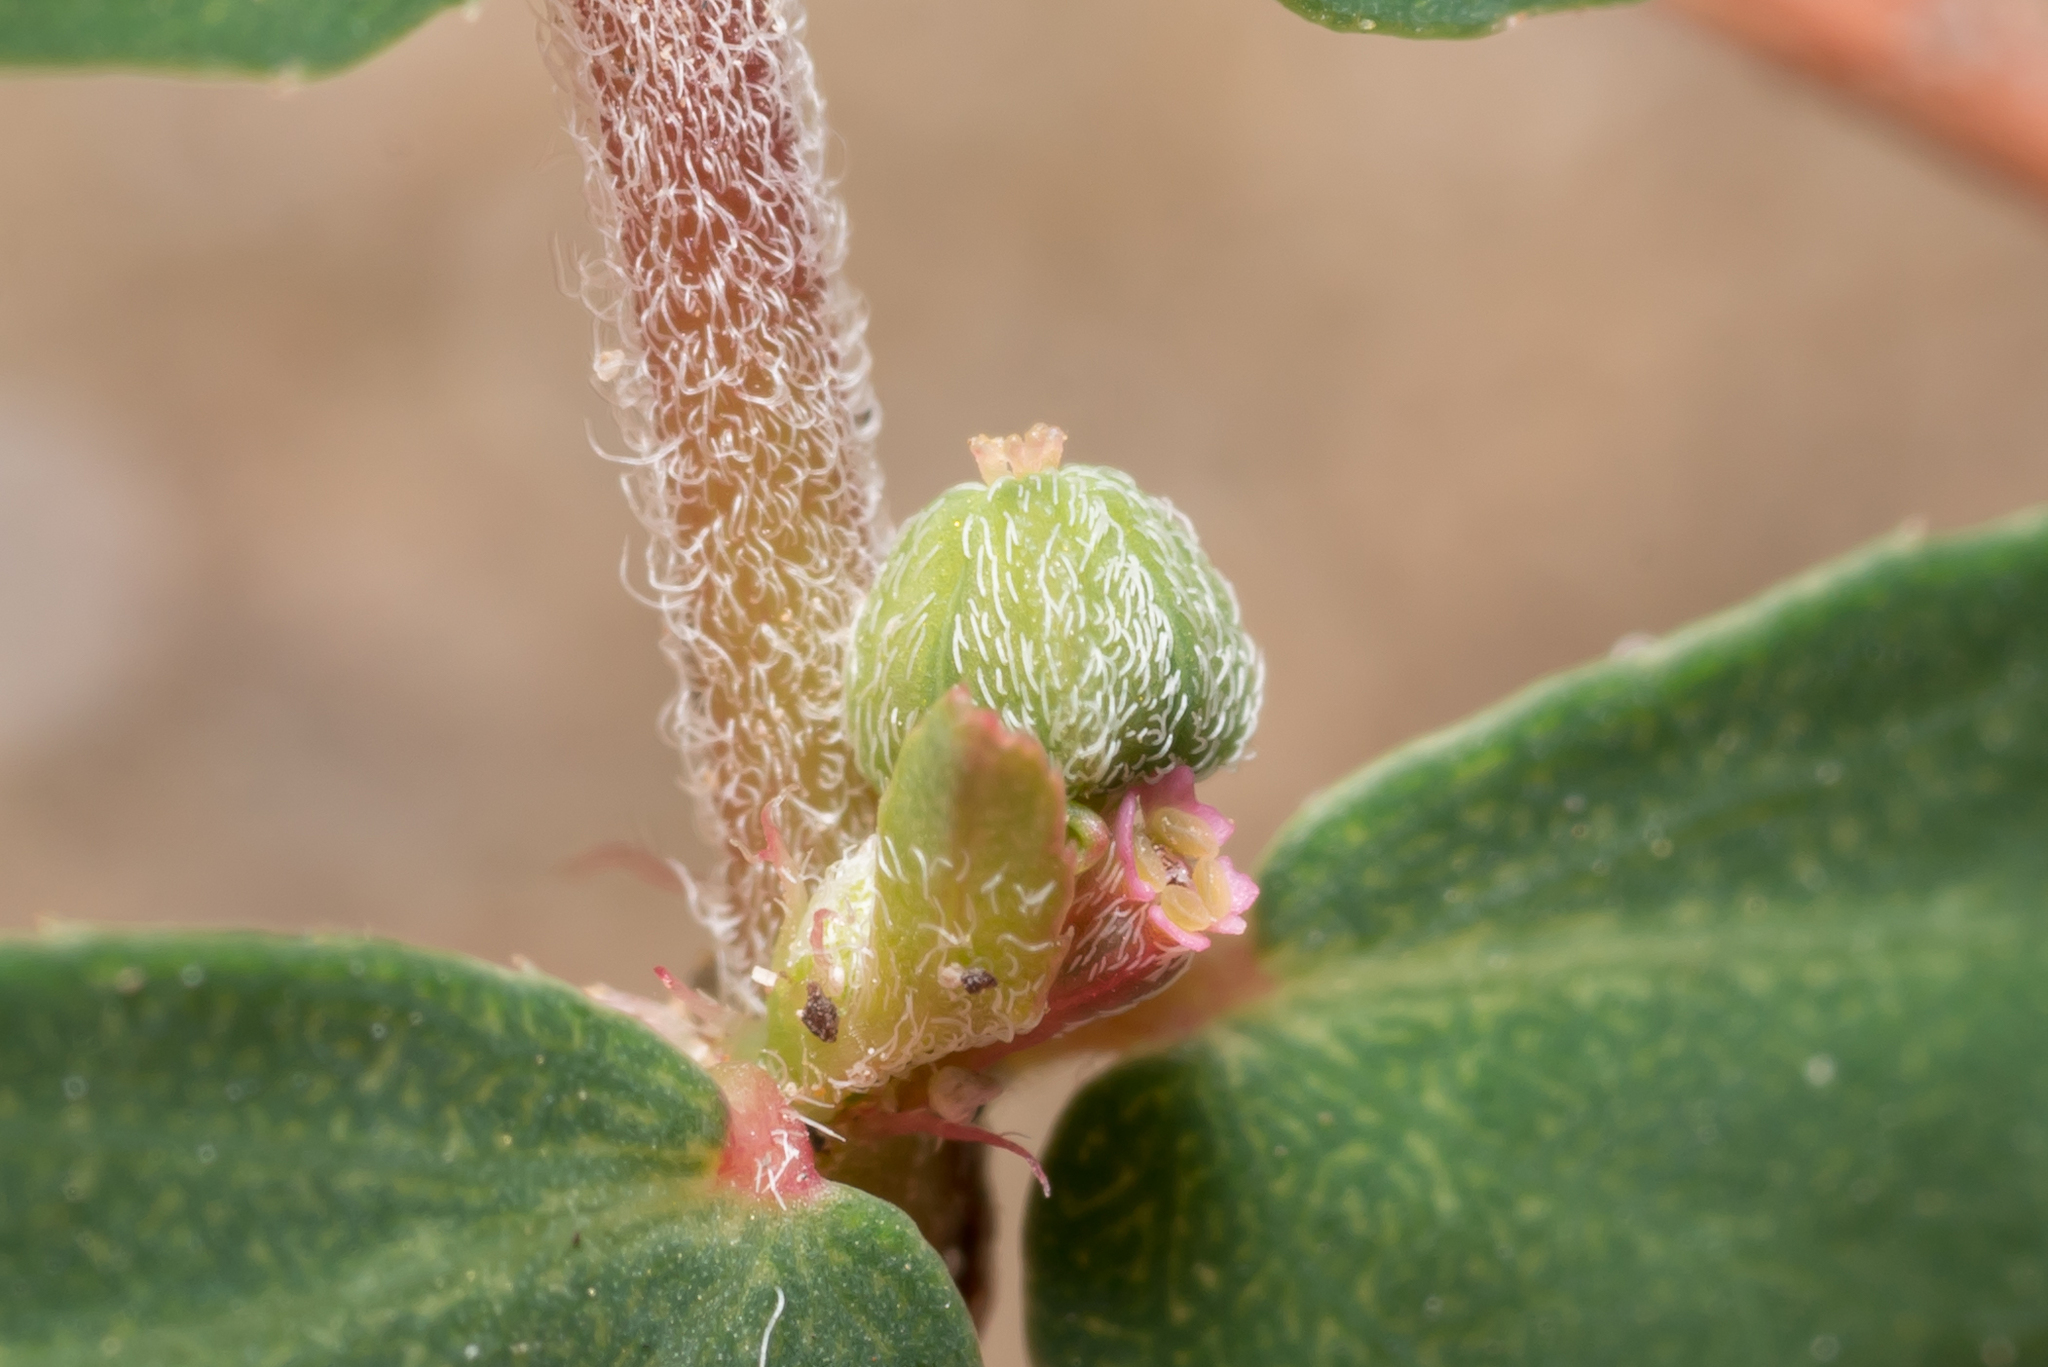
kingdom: Plantae
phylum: Tracheophyta
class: Magnoliopsida
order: Malpighiales
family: Euphorbiaceae
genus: Euphorbia
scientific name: Euphorbia maculata
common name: Spotted spurge
